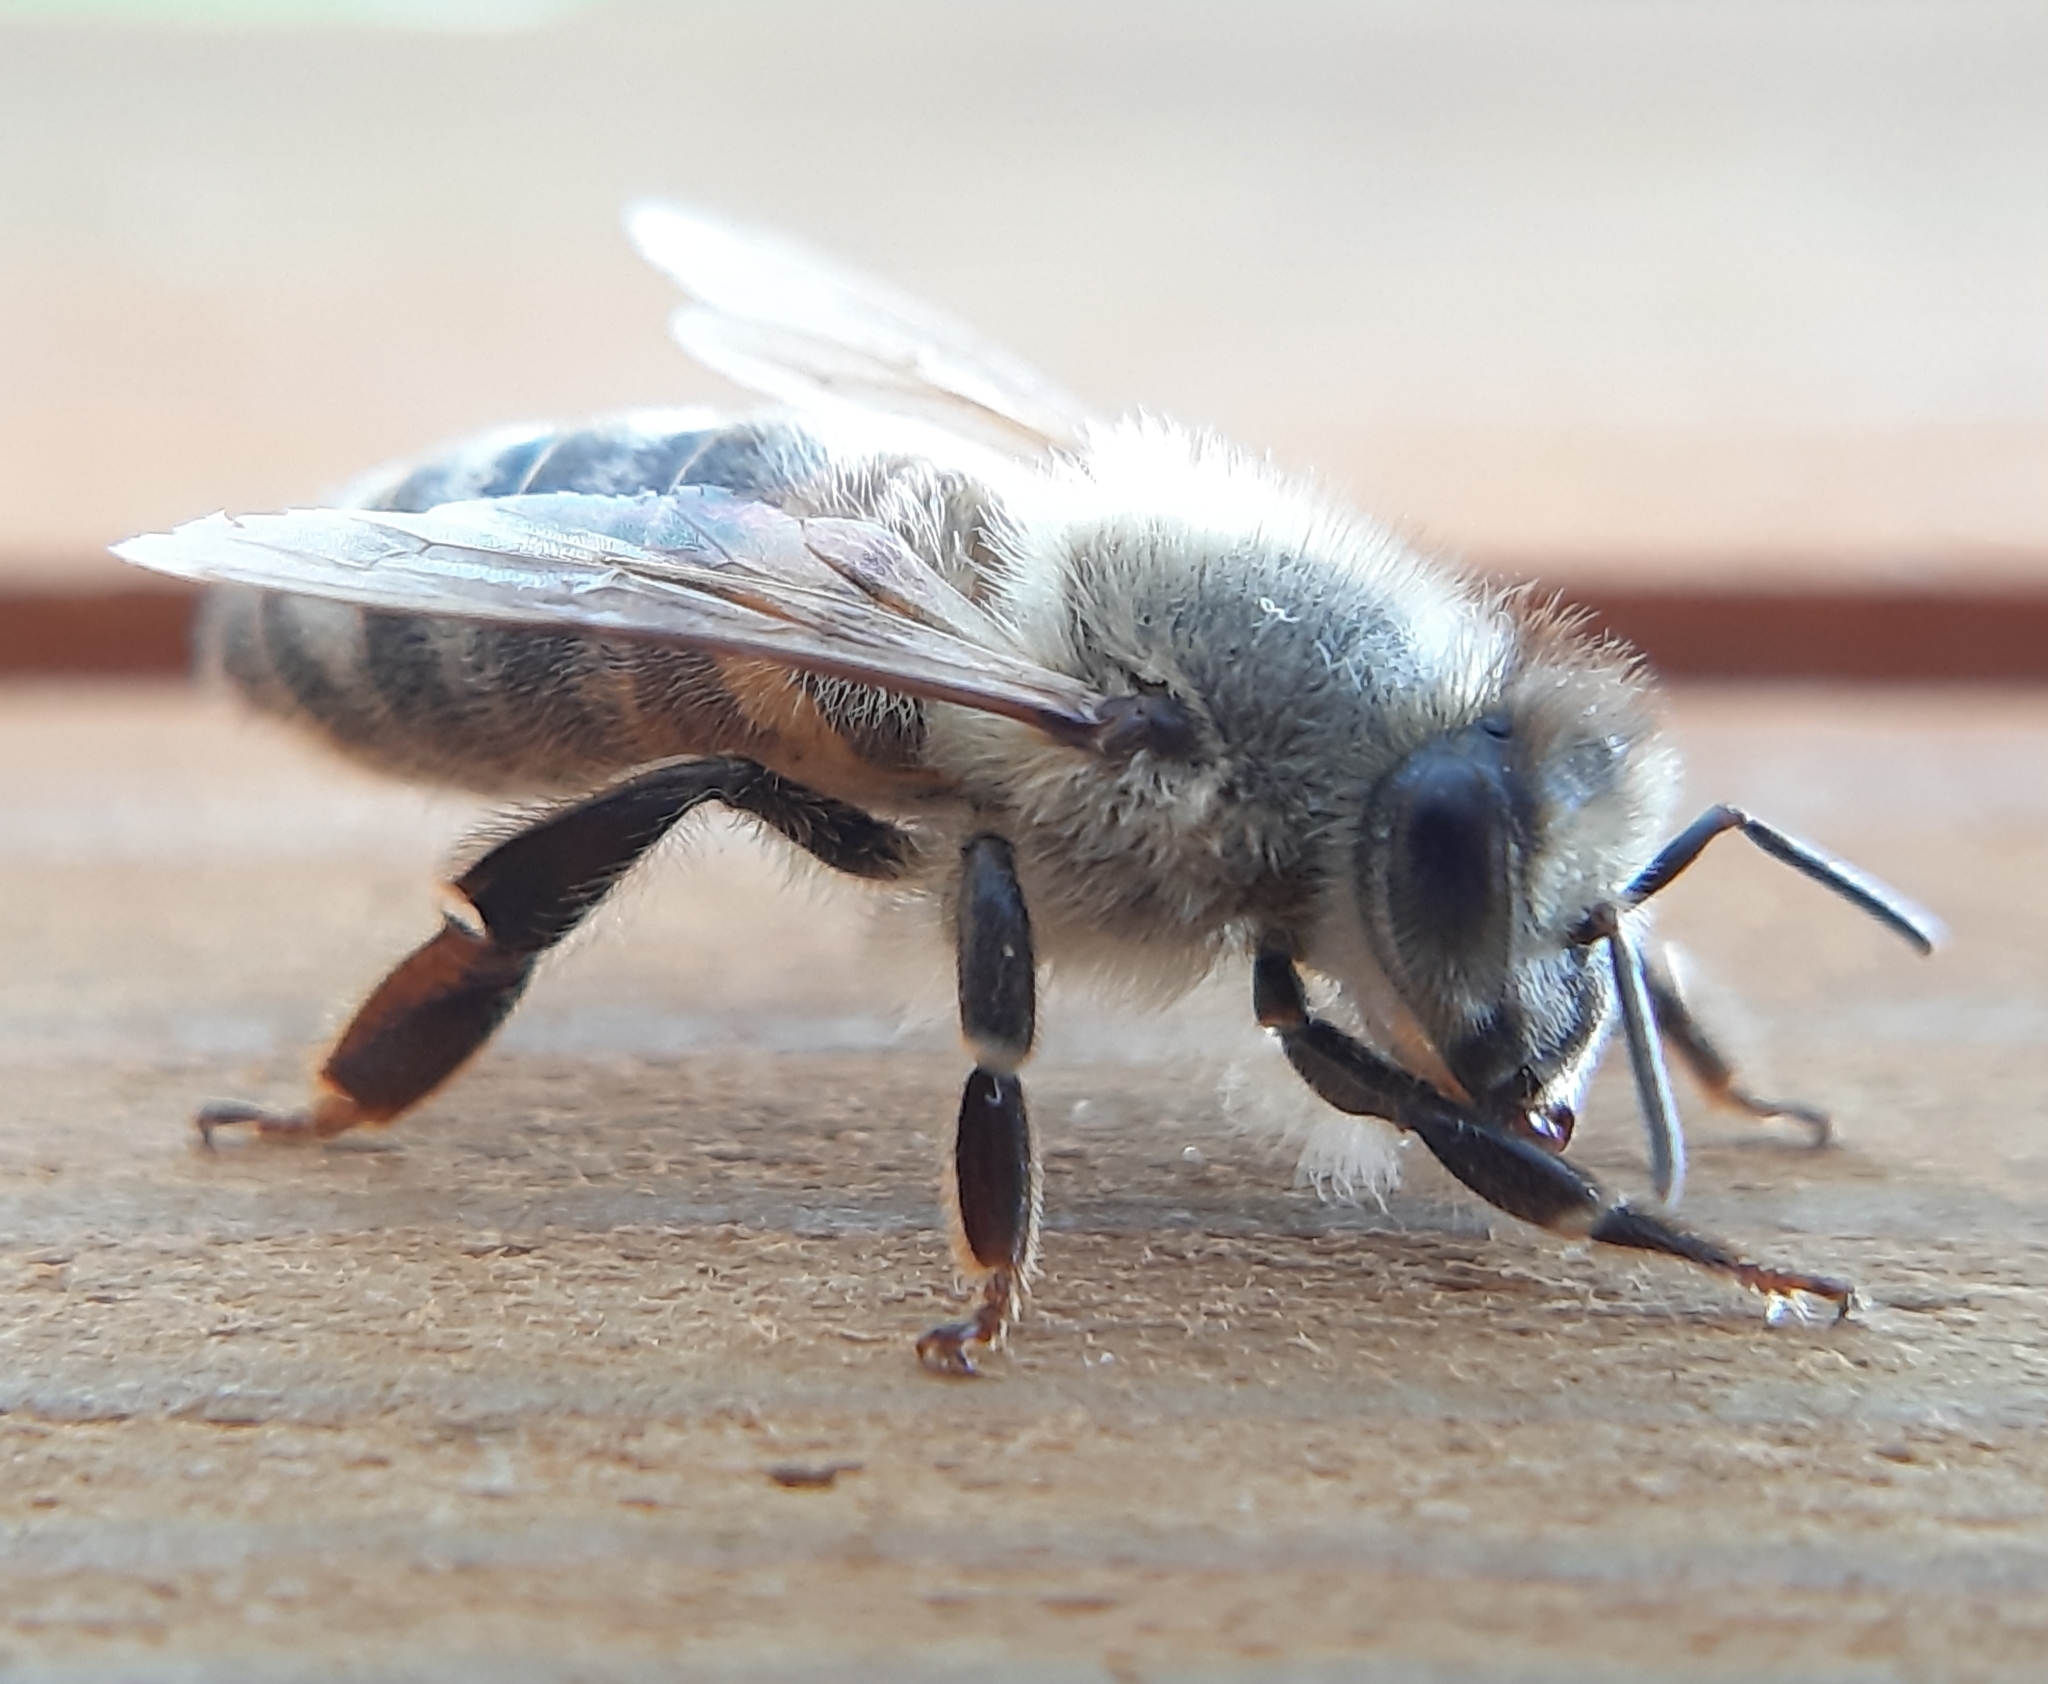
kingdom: Animalia
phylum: Arthropoda
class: Insecta
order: Hymenoptera
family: Apidae
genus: Apis
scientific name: Apis mellifera
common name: Honey bee
